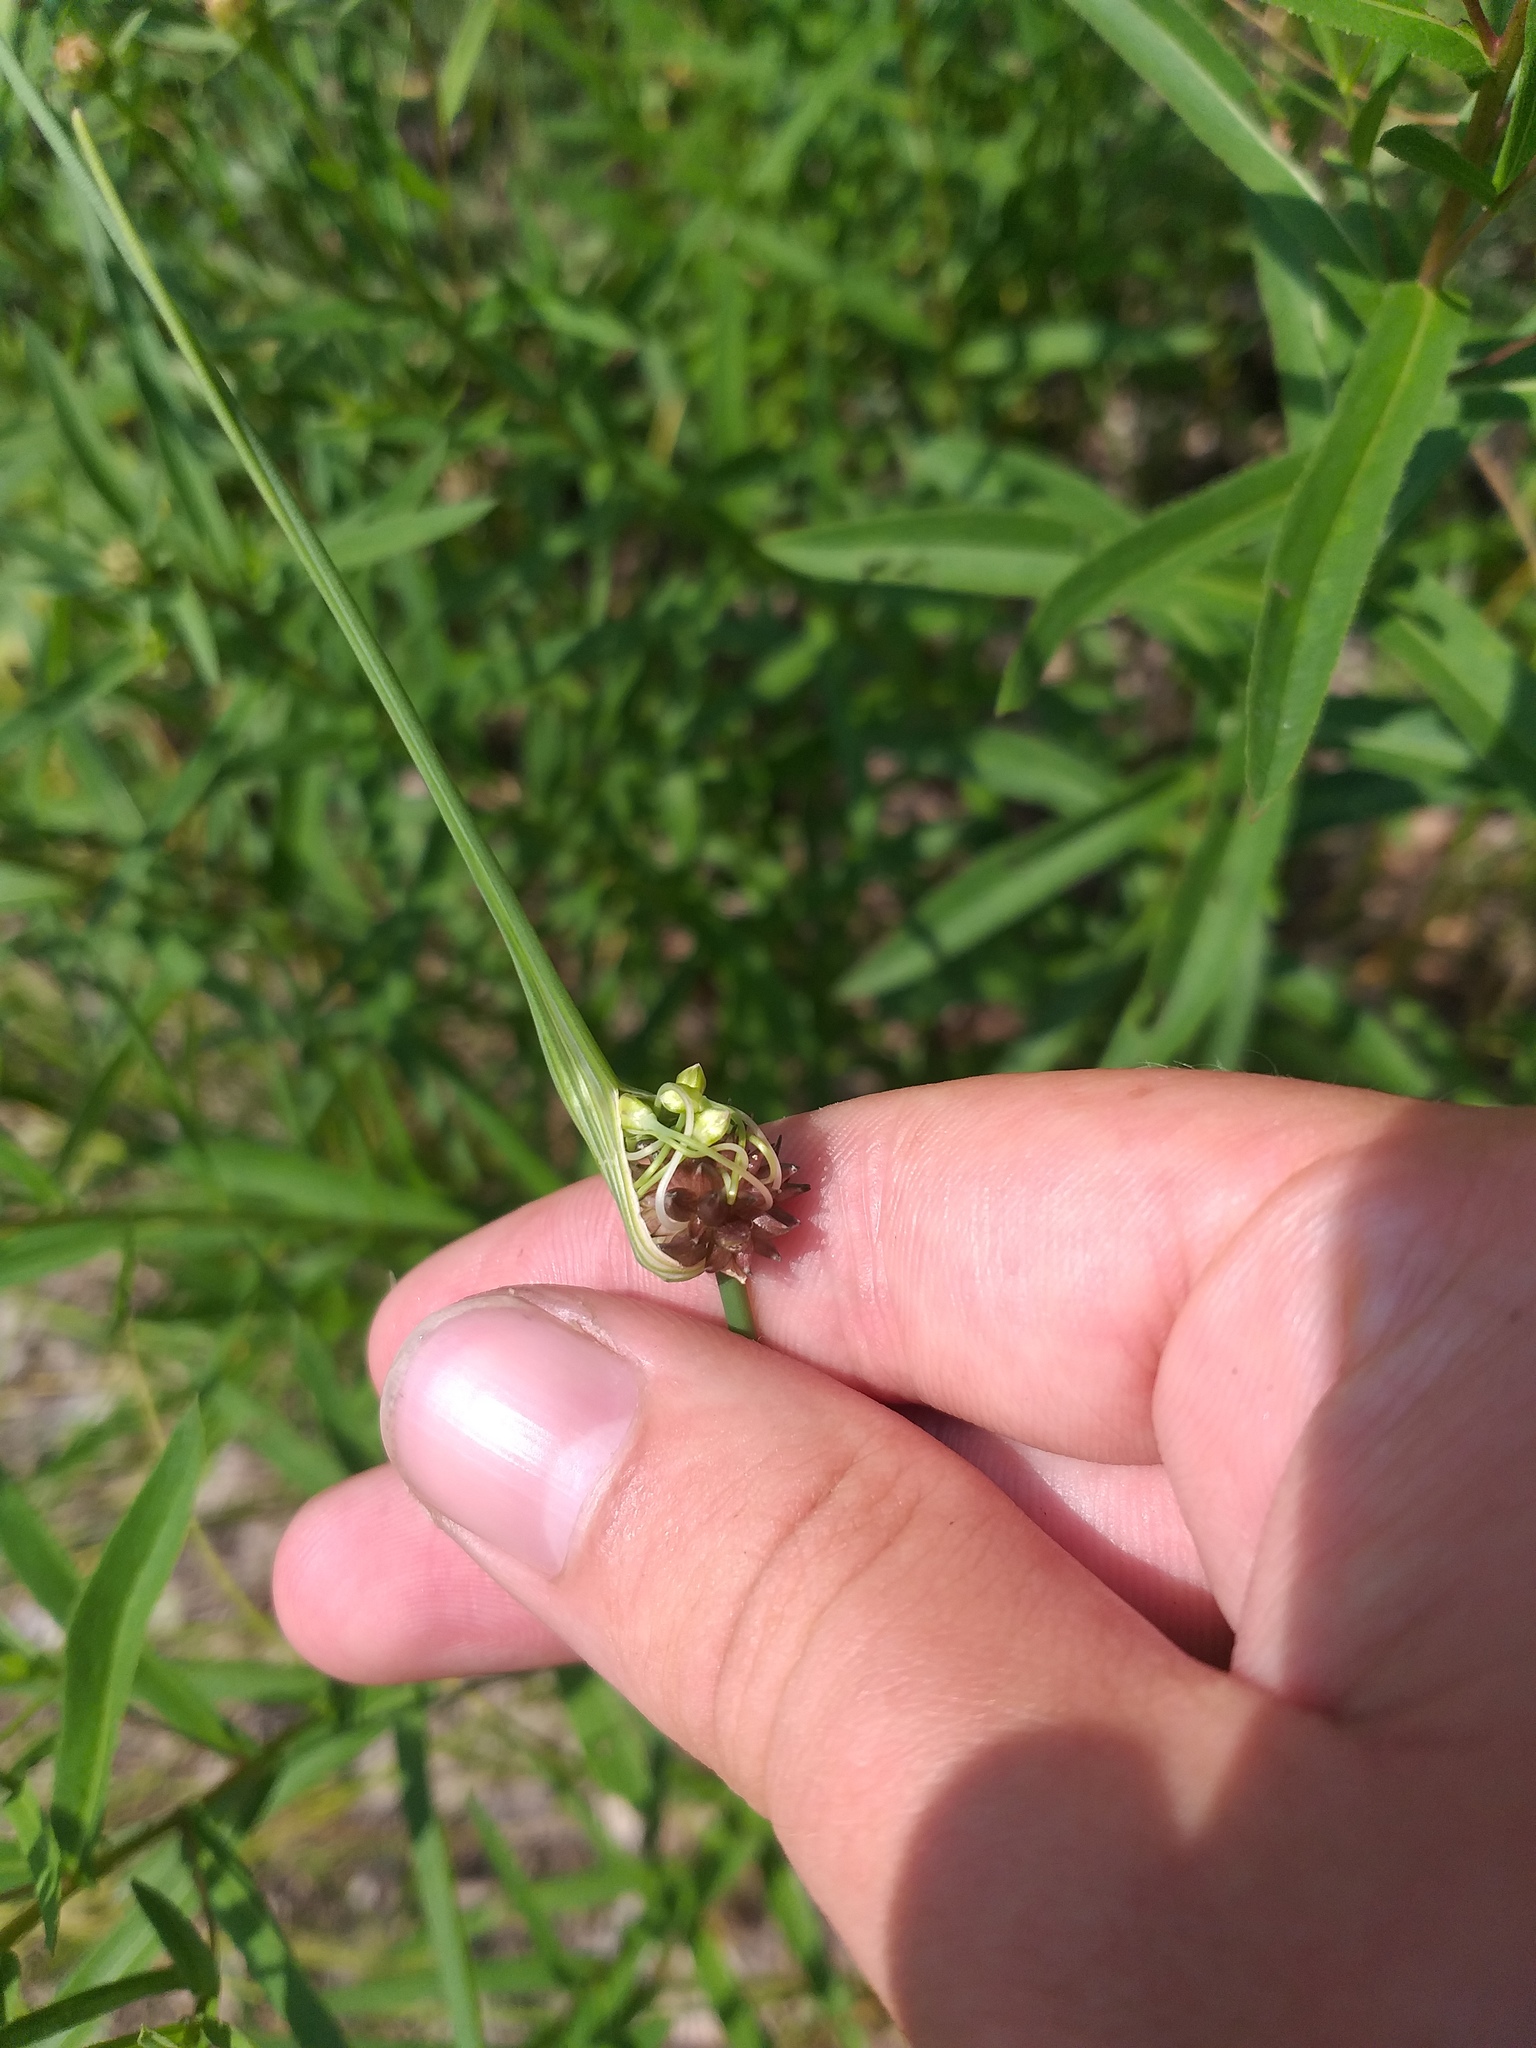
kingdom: Plantae
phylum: Tracheophyta
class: Liliopsida
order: Asparagales
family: Amaryllidaceae
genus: Allium
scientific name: Allium oleraceum
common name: Field garlic
